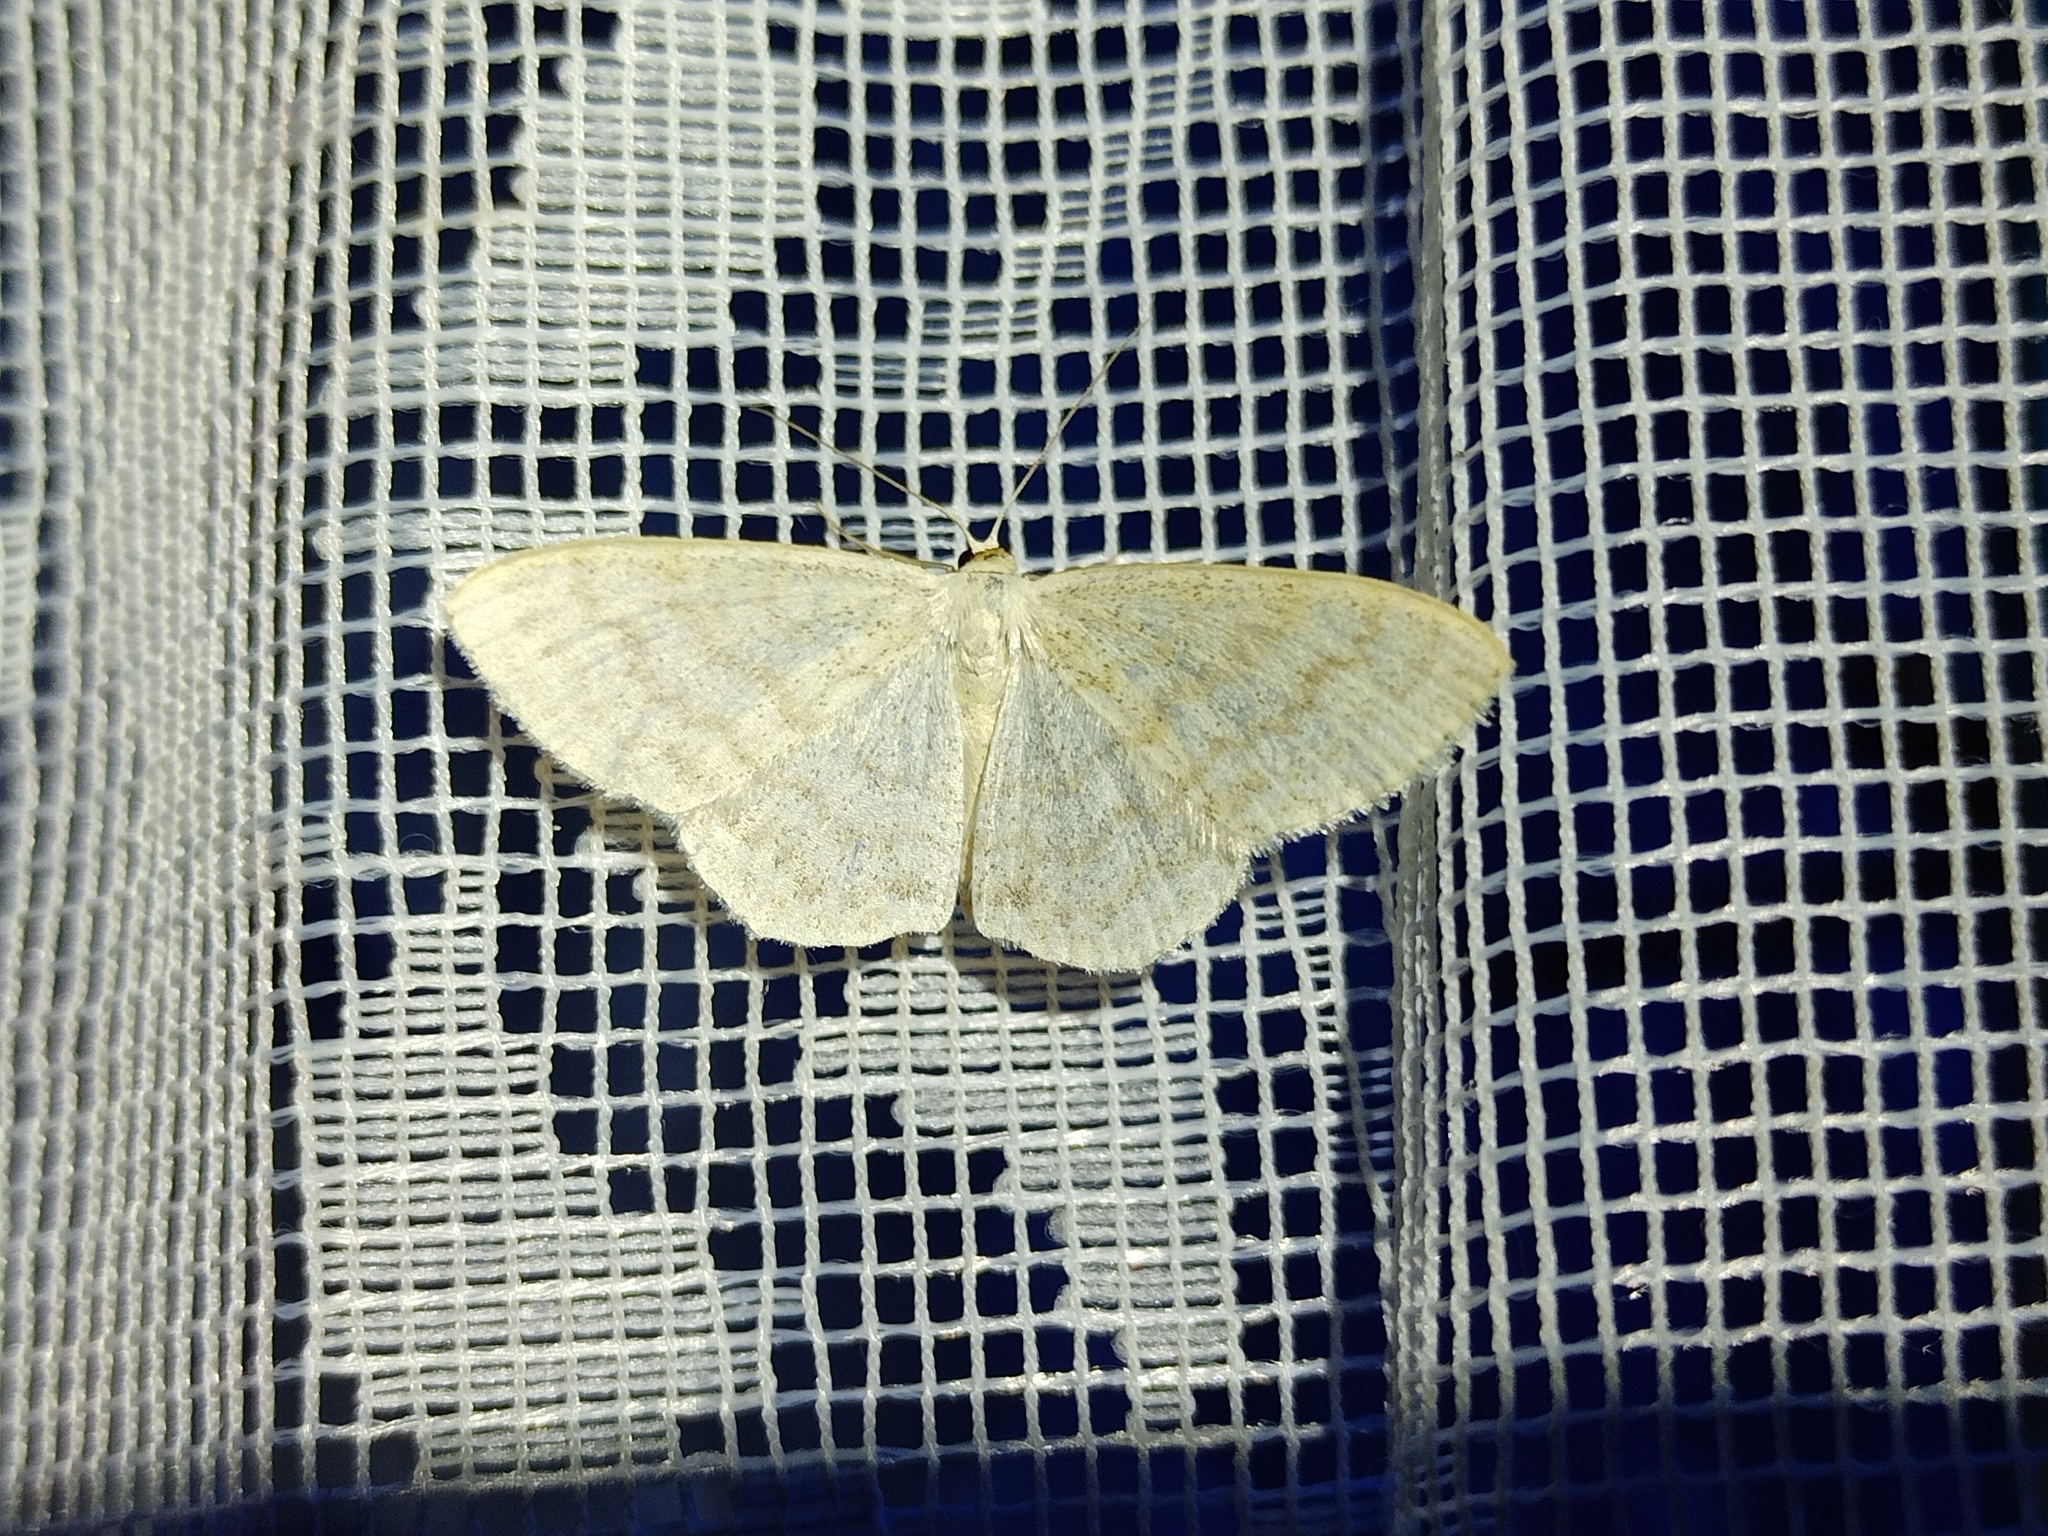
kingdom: Animalia
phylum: Arthropoda
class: Insecta
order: Lepidoptera
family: Geometridae
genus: Scopula
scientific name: Scopula floslactata
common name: Cream wave
